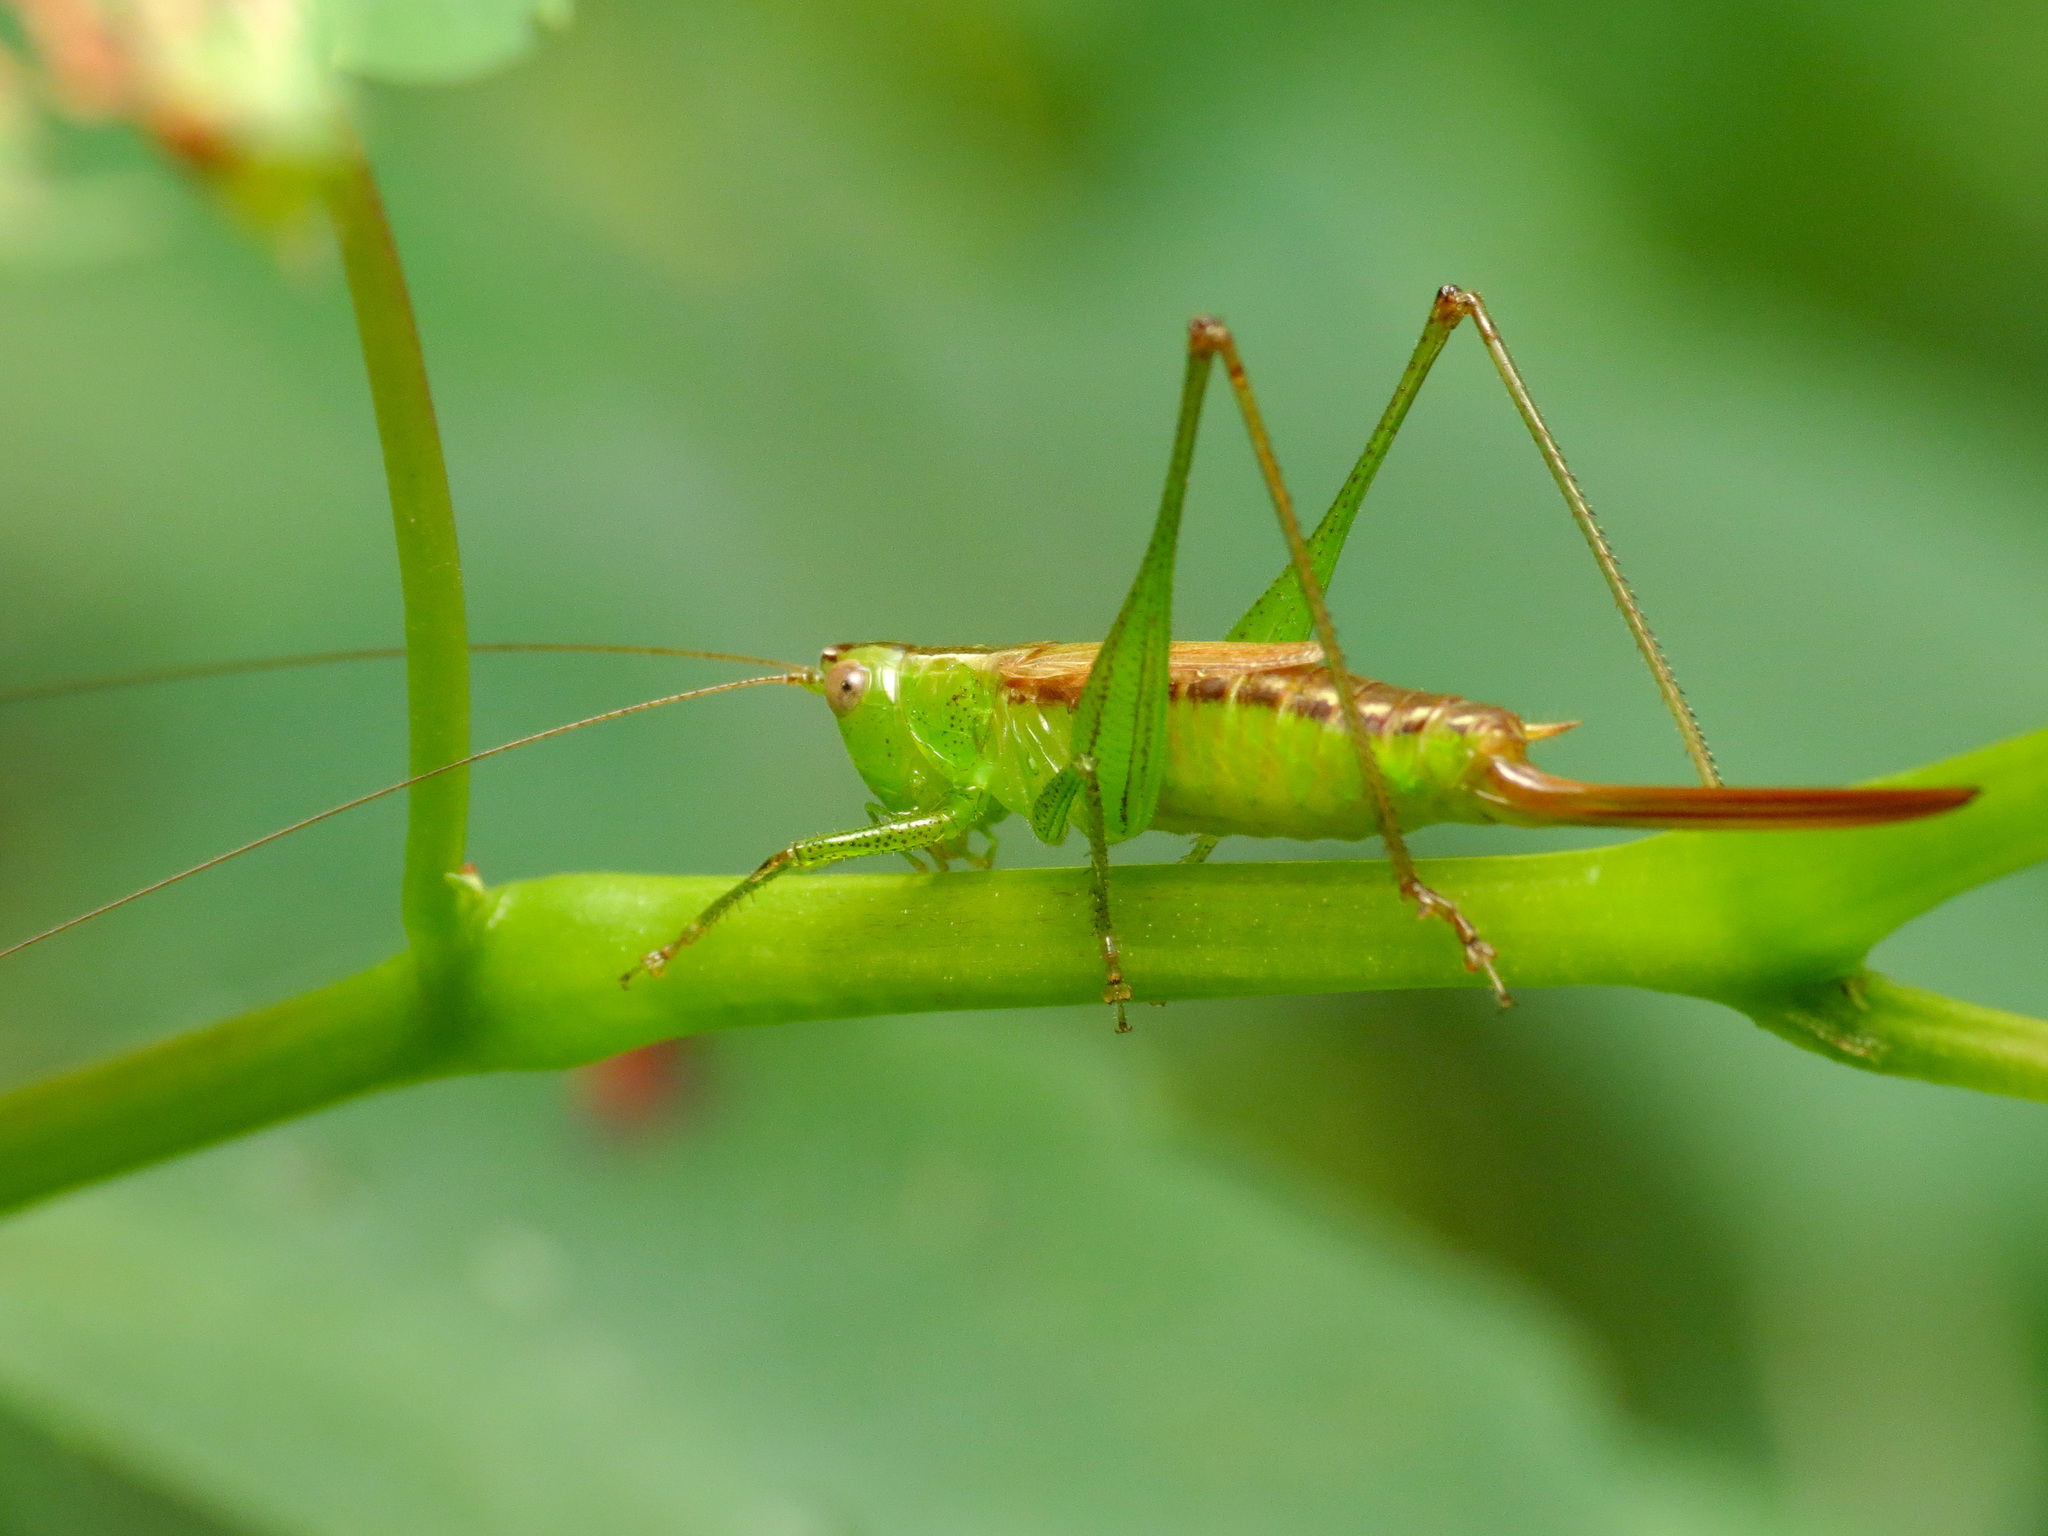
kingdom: Animalia
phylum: Arthropoda
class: Insecta
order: Orthoptera
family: Tettigoniidae
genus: Conocephalus
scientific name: Conocephalus brevipennis
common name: Short-winged meadow katydid
